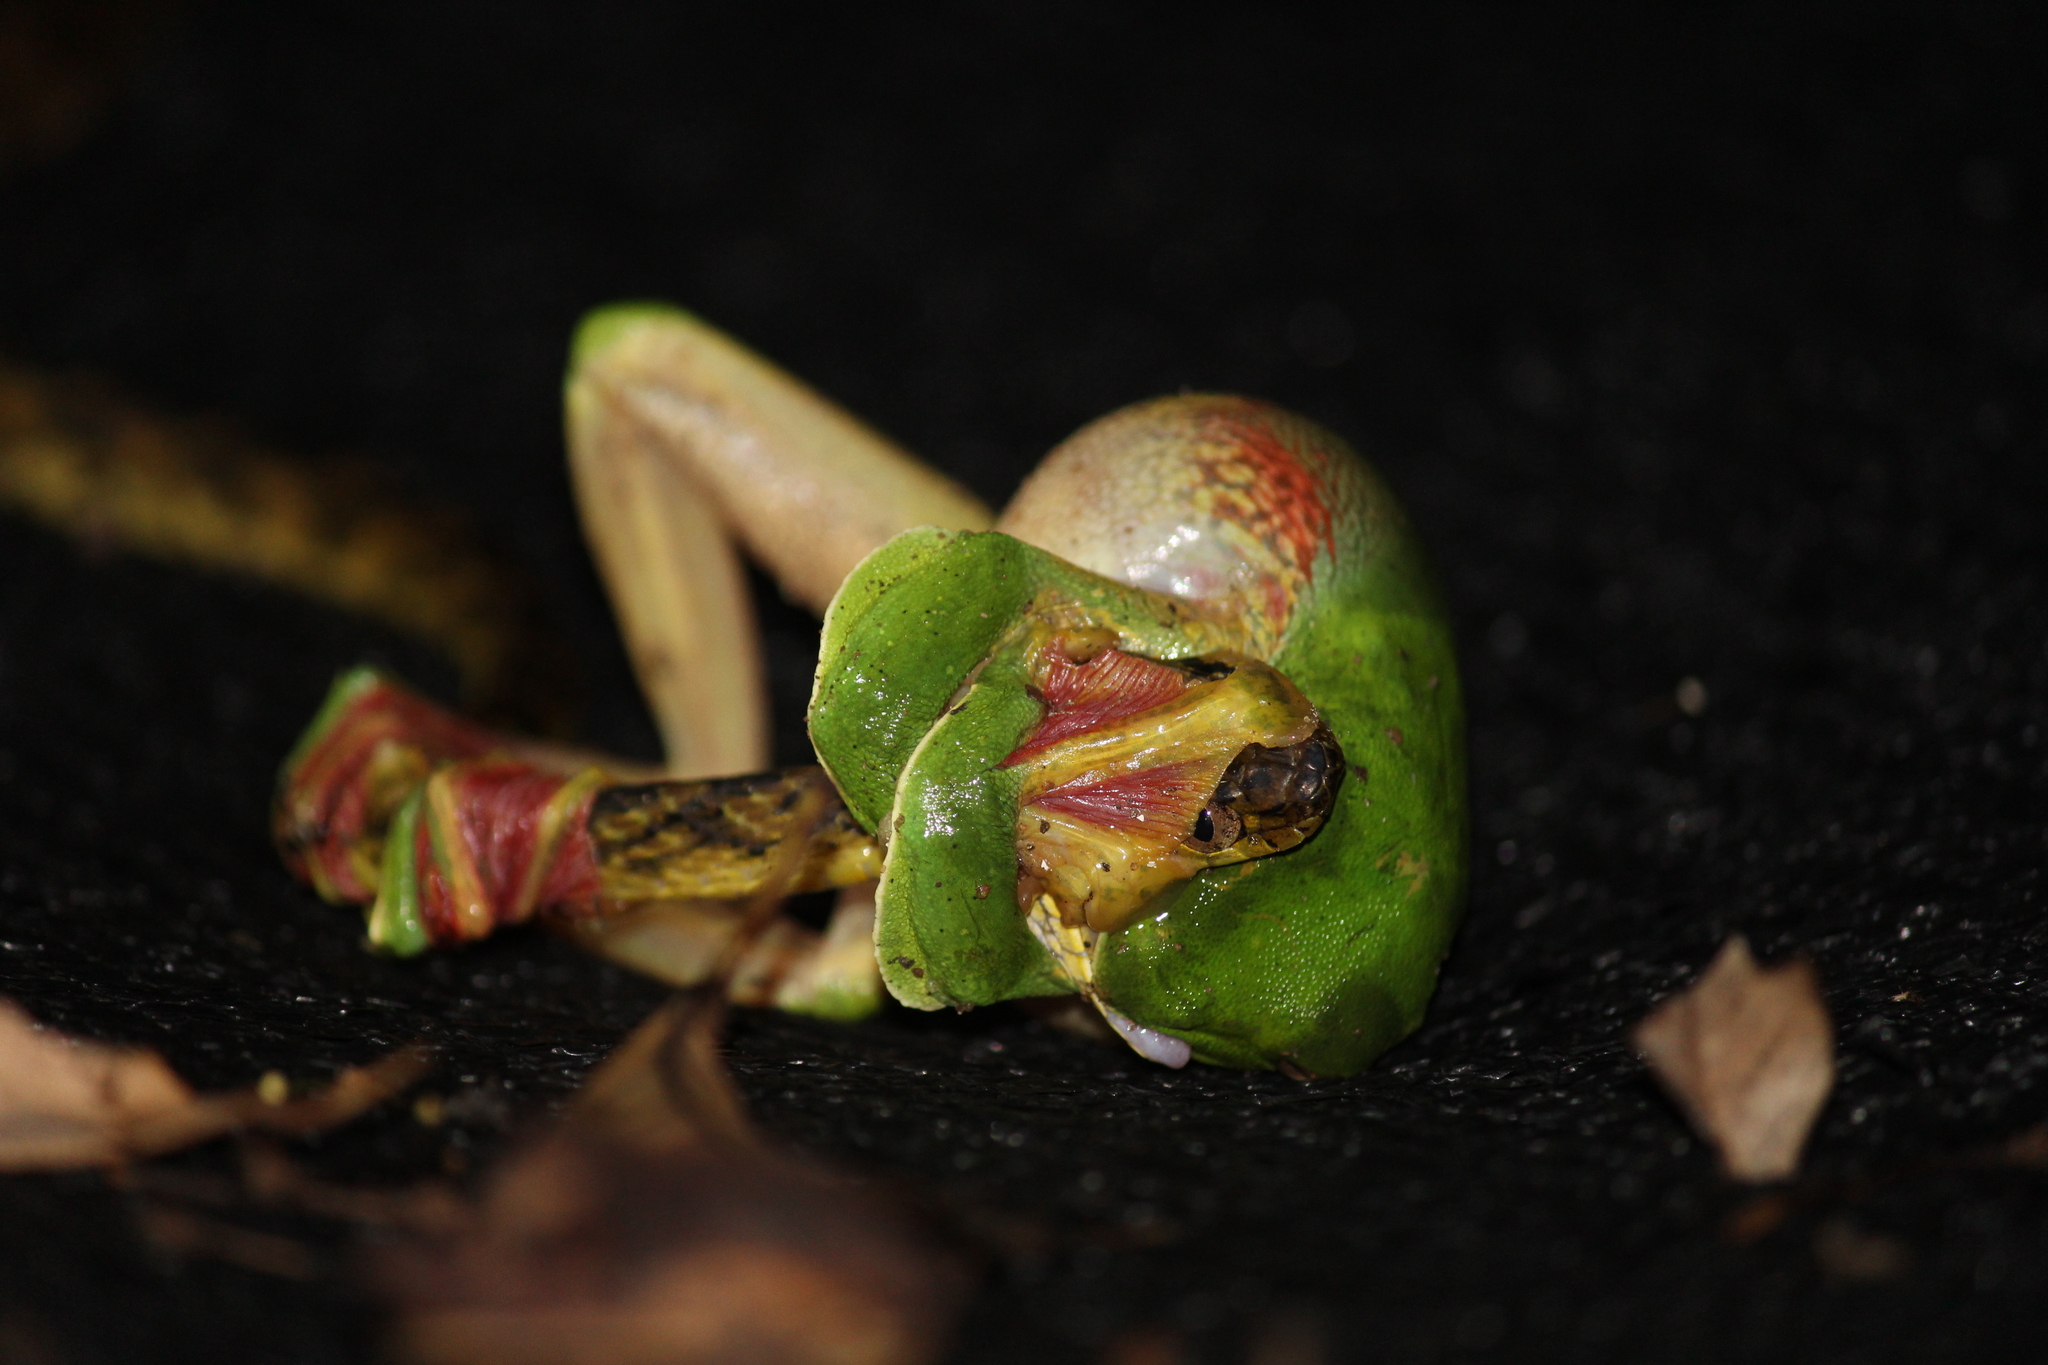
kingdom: Animalia
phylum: Chordata
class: Squamata
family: Colubridae
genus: Boiga
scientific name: Boiga thackerayi
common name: Thackeray’s cat snake
